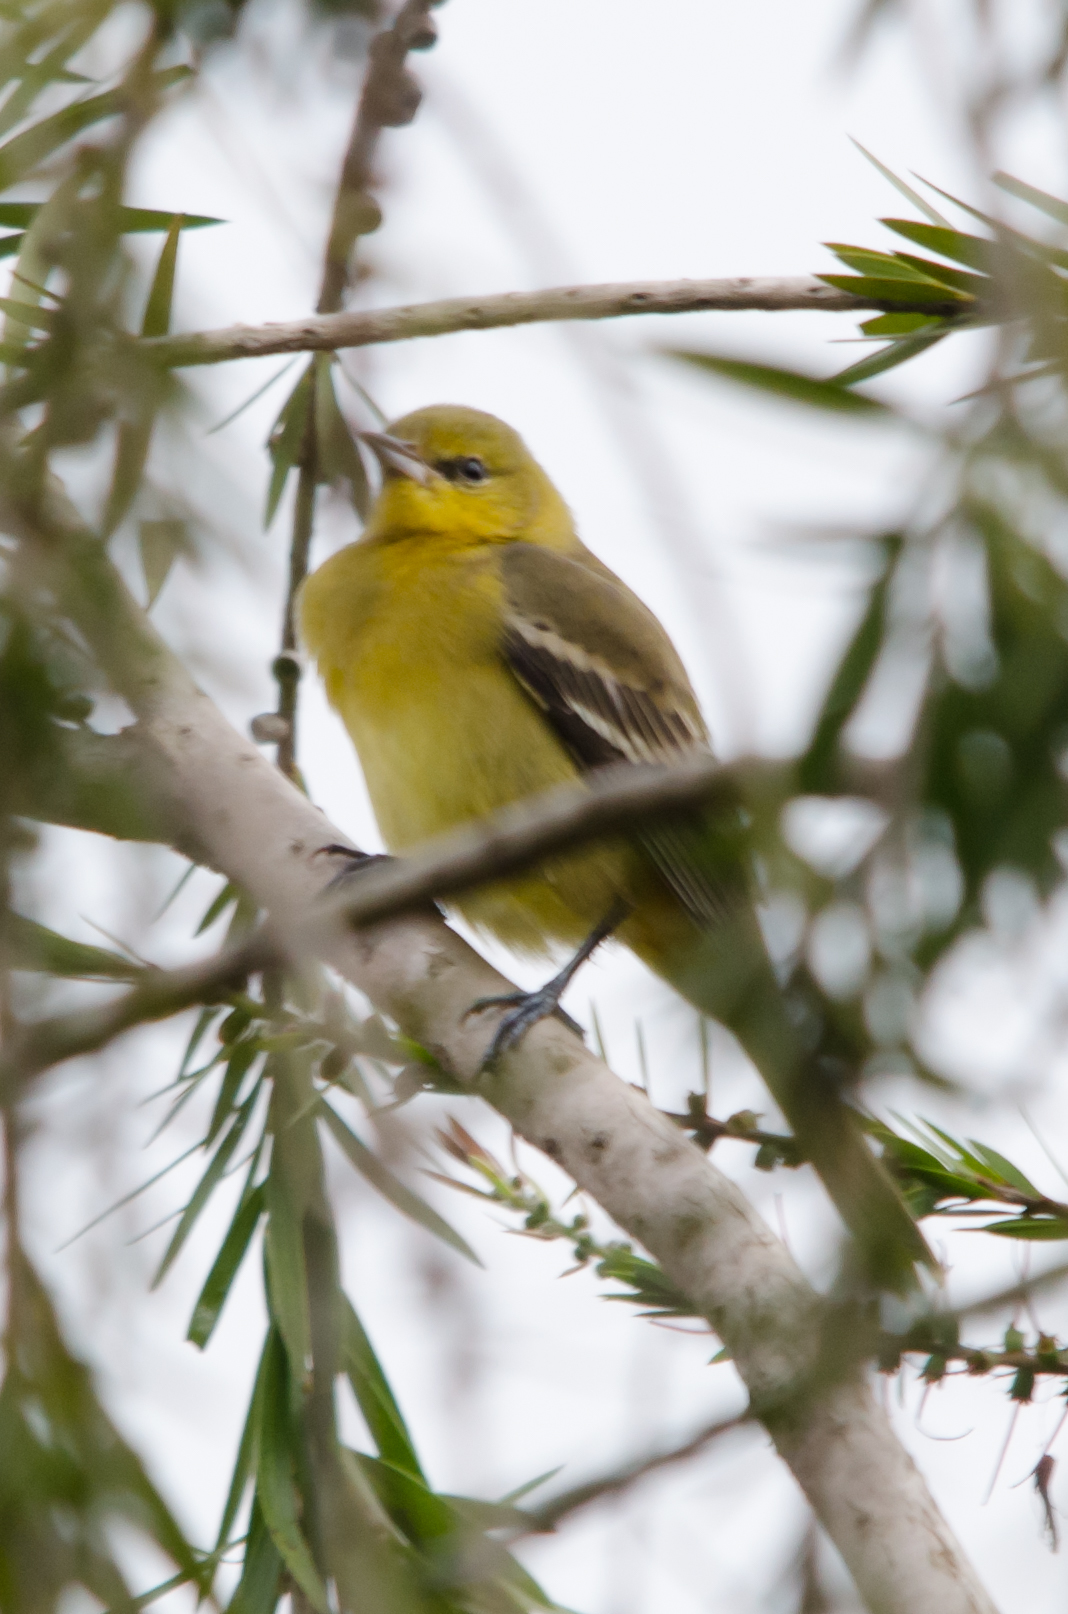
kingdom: Animalia
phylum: Chordata
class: Aves
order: Passeriformes
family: Icteridae
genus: Icterus
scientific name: Icterus spurius
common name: Orchard oriole
